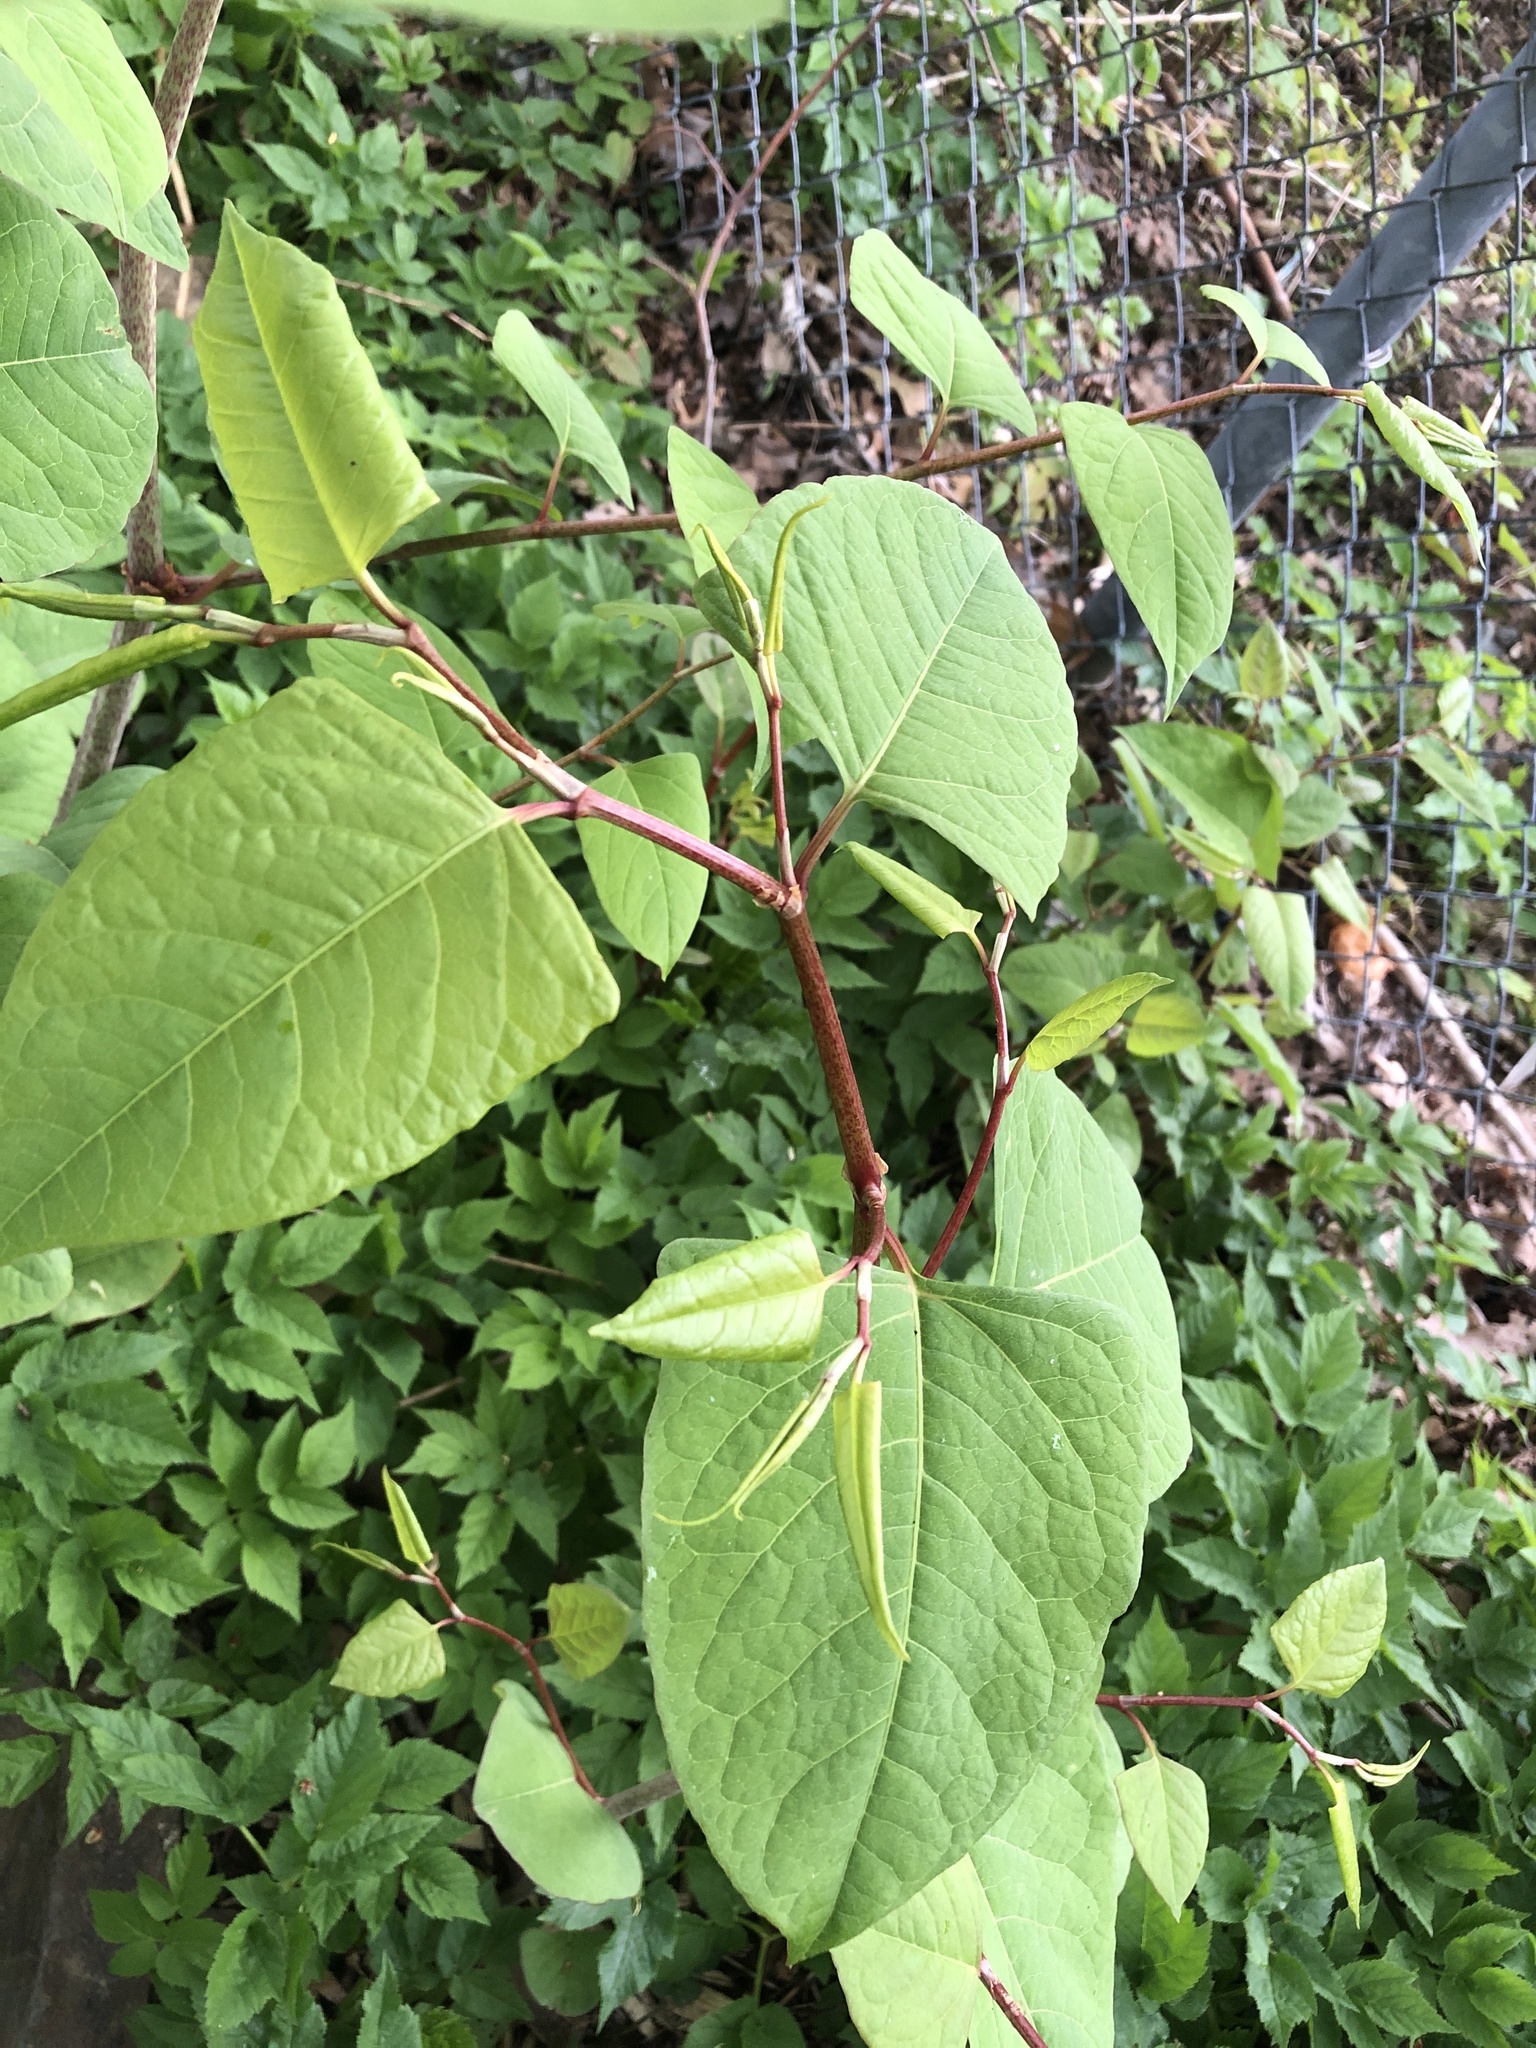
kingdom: Plantae
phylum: Tracheophyta
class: Magnoliopsida
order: Caryophyllales
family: Polygonaceae
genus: Reynoutria
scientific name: Reynoutria japonica
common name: Japanese knotweed
